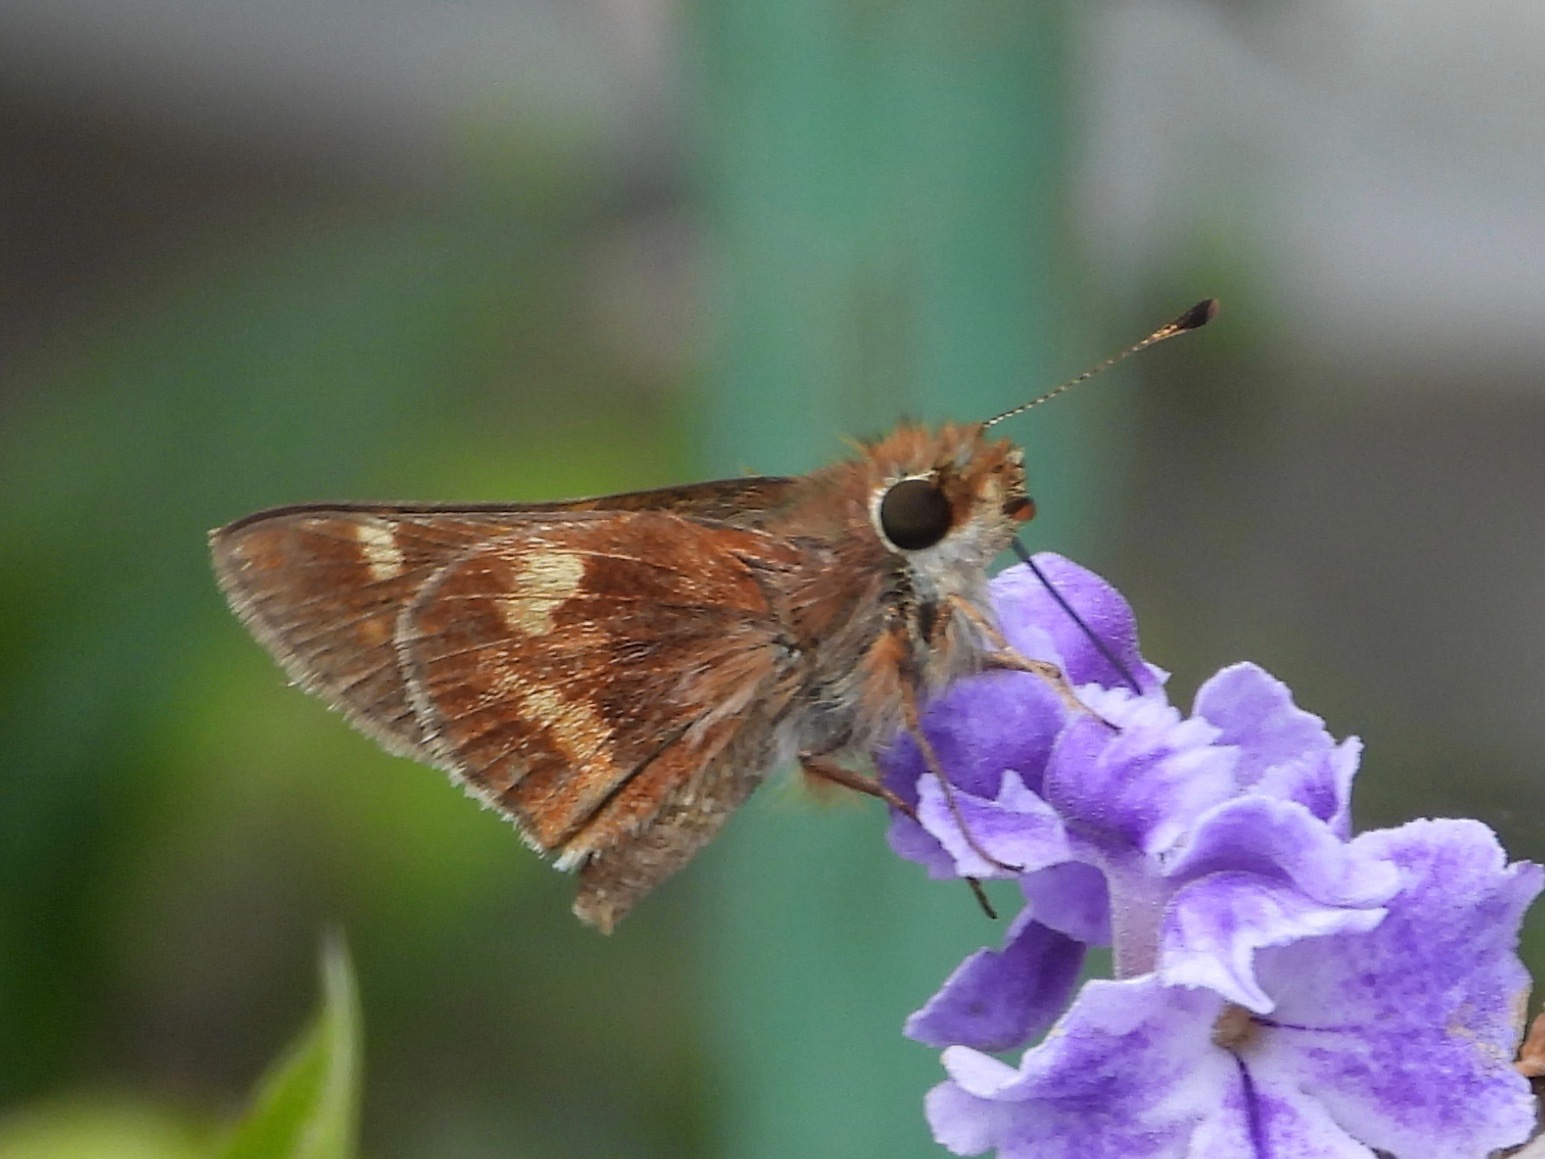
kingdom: Animalia
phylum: Arthropoda
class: Insecta
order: Lepidoptera
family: Hesperiidae
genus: Lon
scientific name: Lon
